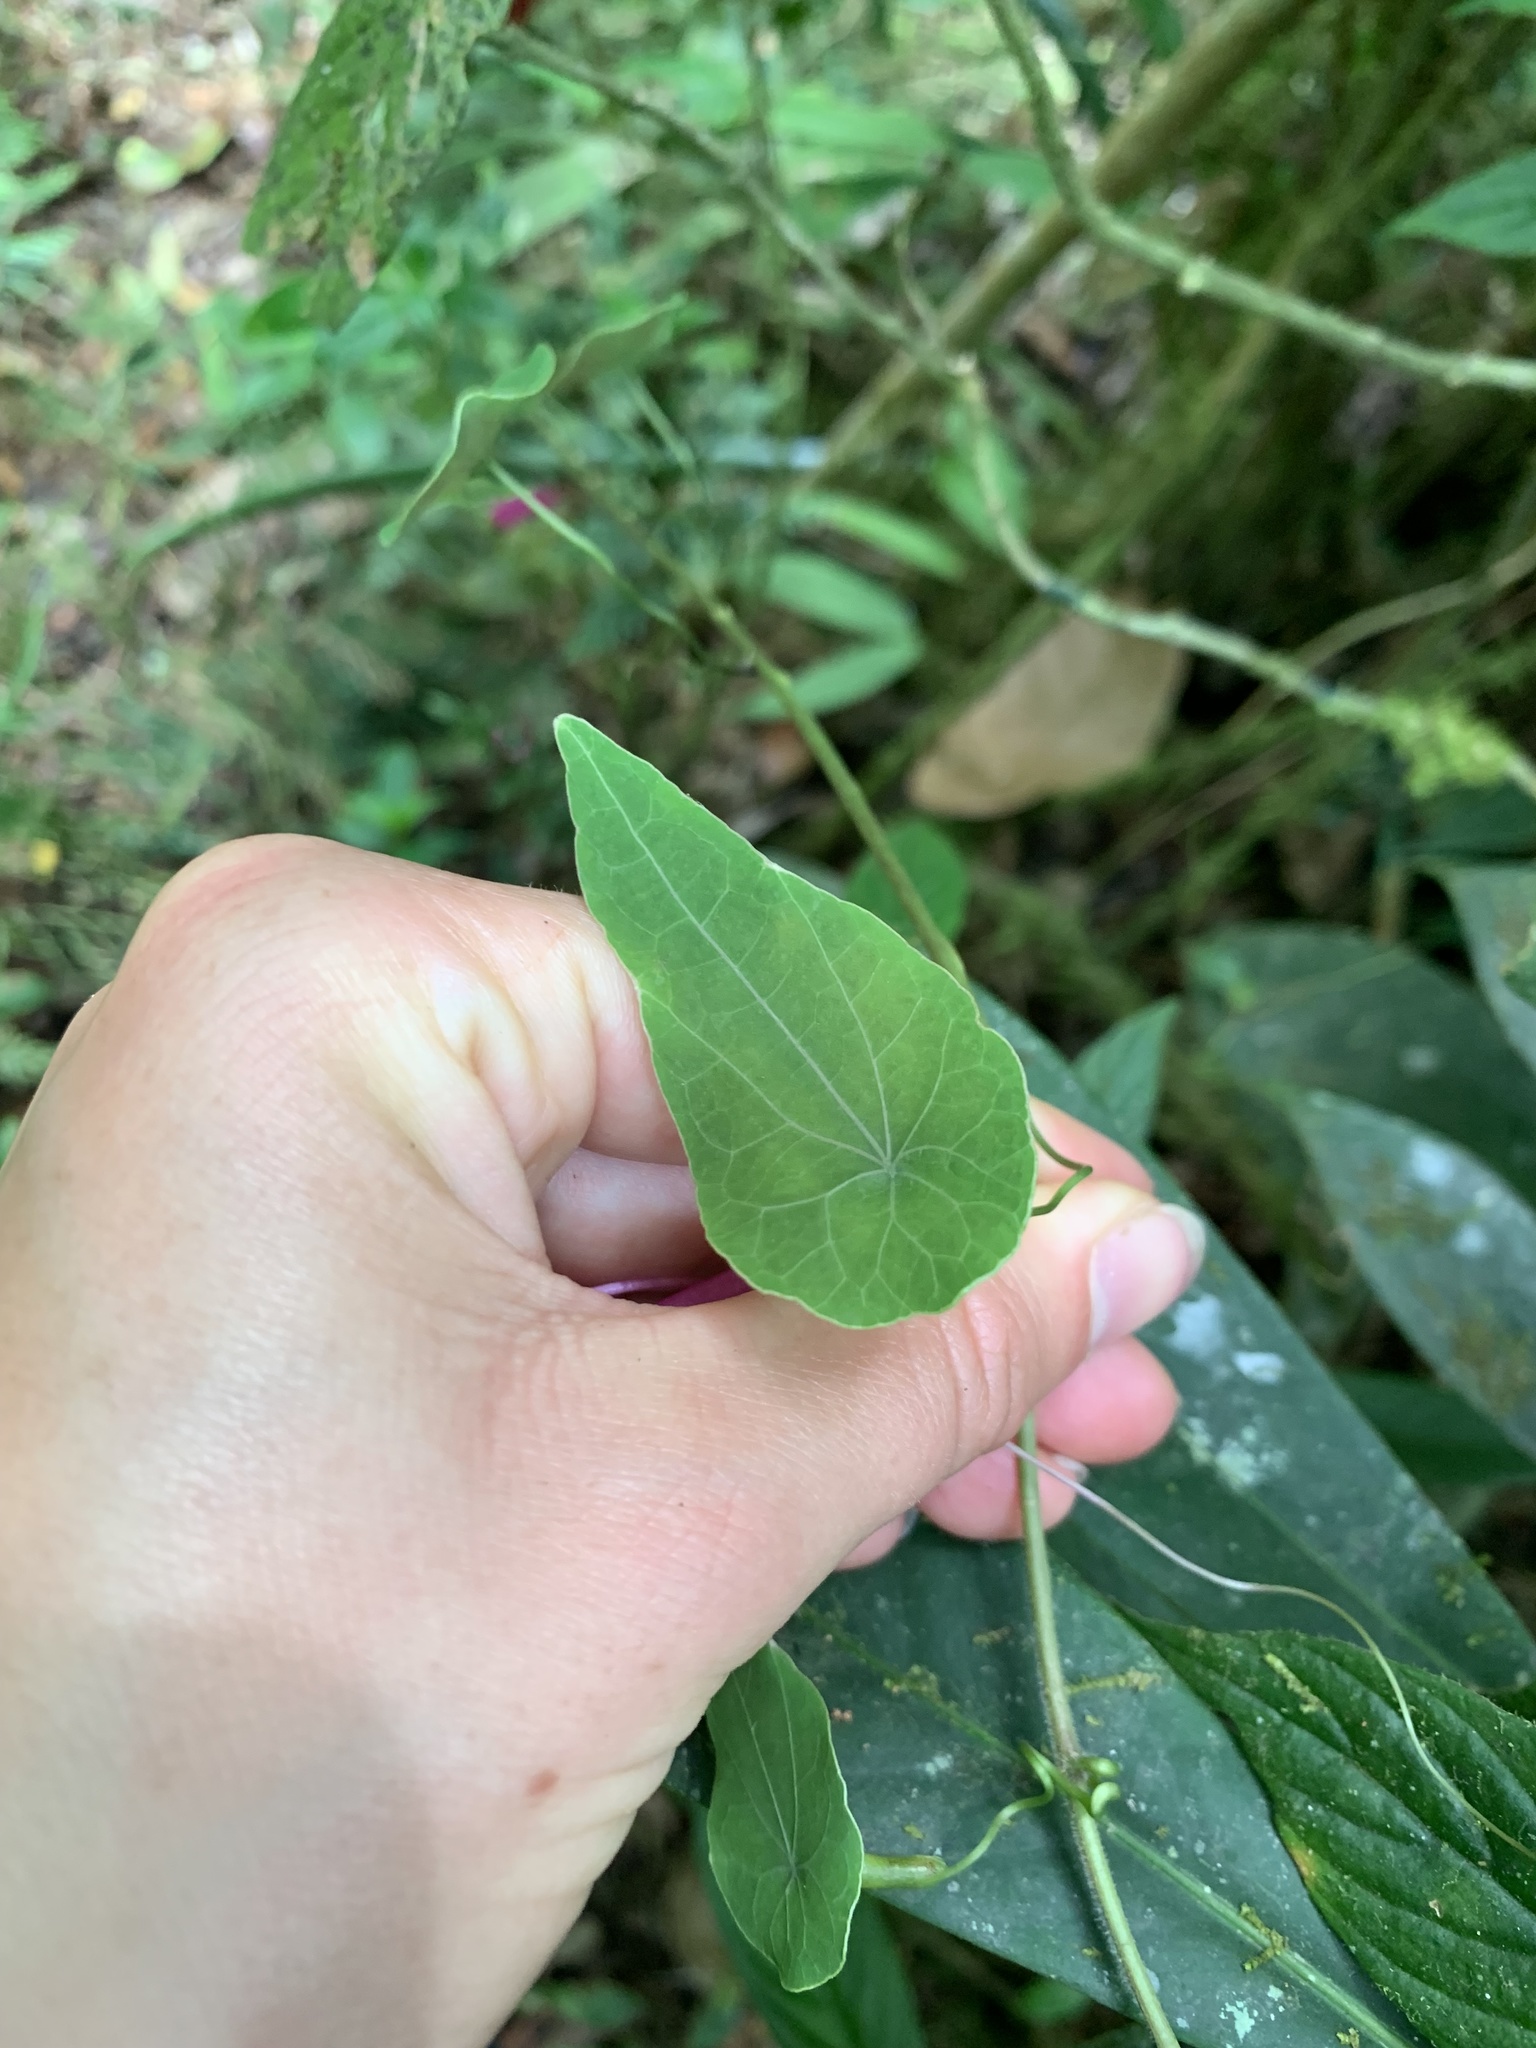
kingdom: Plantae
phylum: Tracheophyta
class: Magnoliopsida
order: Brassicales
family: Tropaeolaceae
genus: Tropaeolum
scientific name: Tropaeolum longifolium
